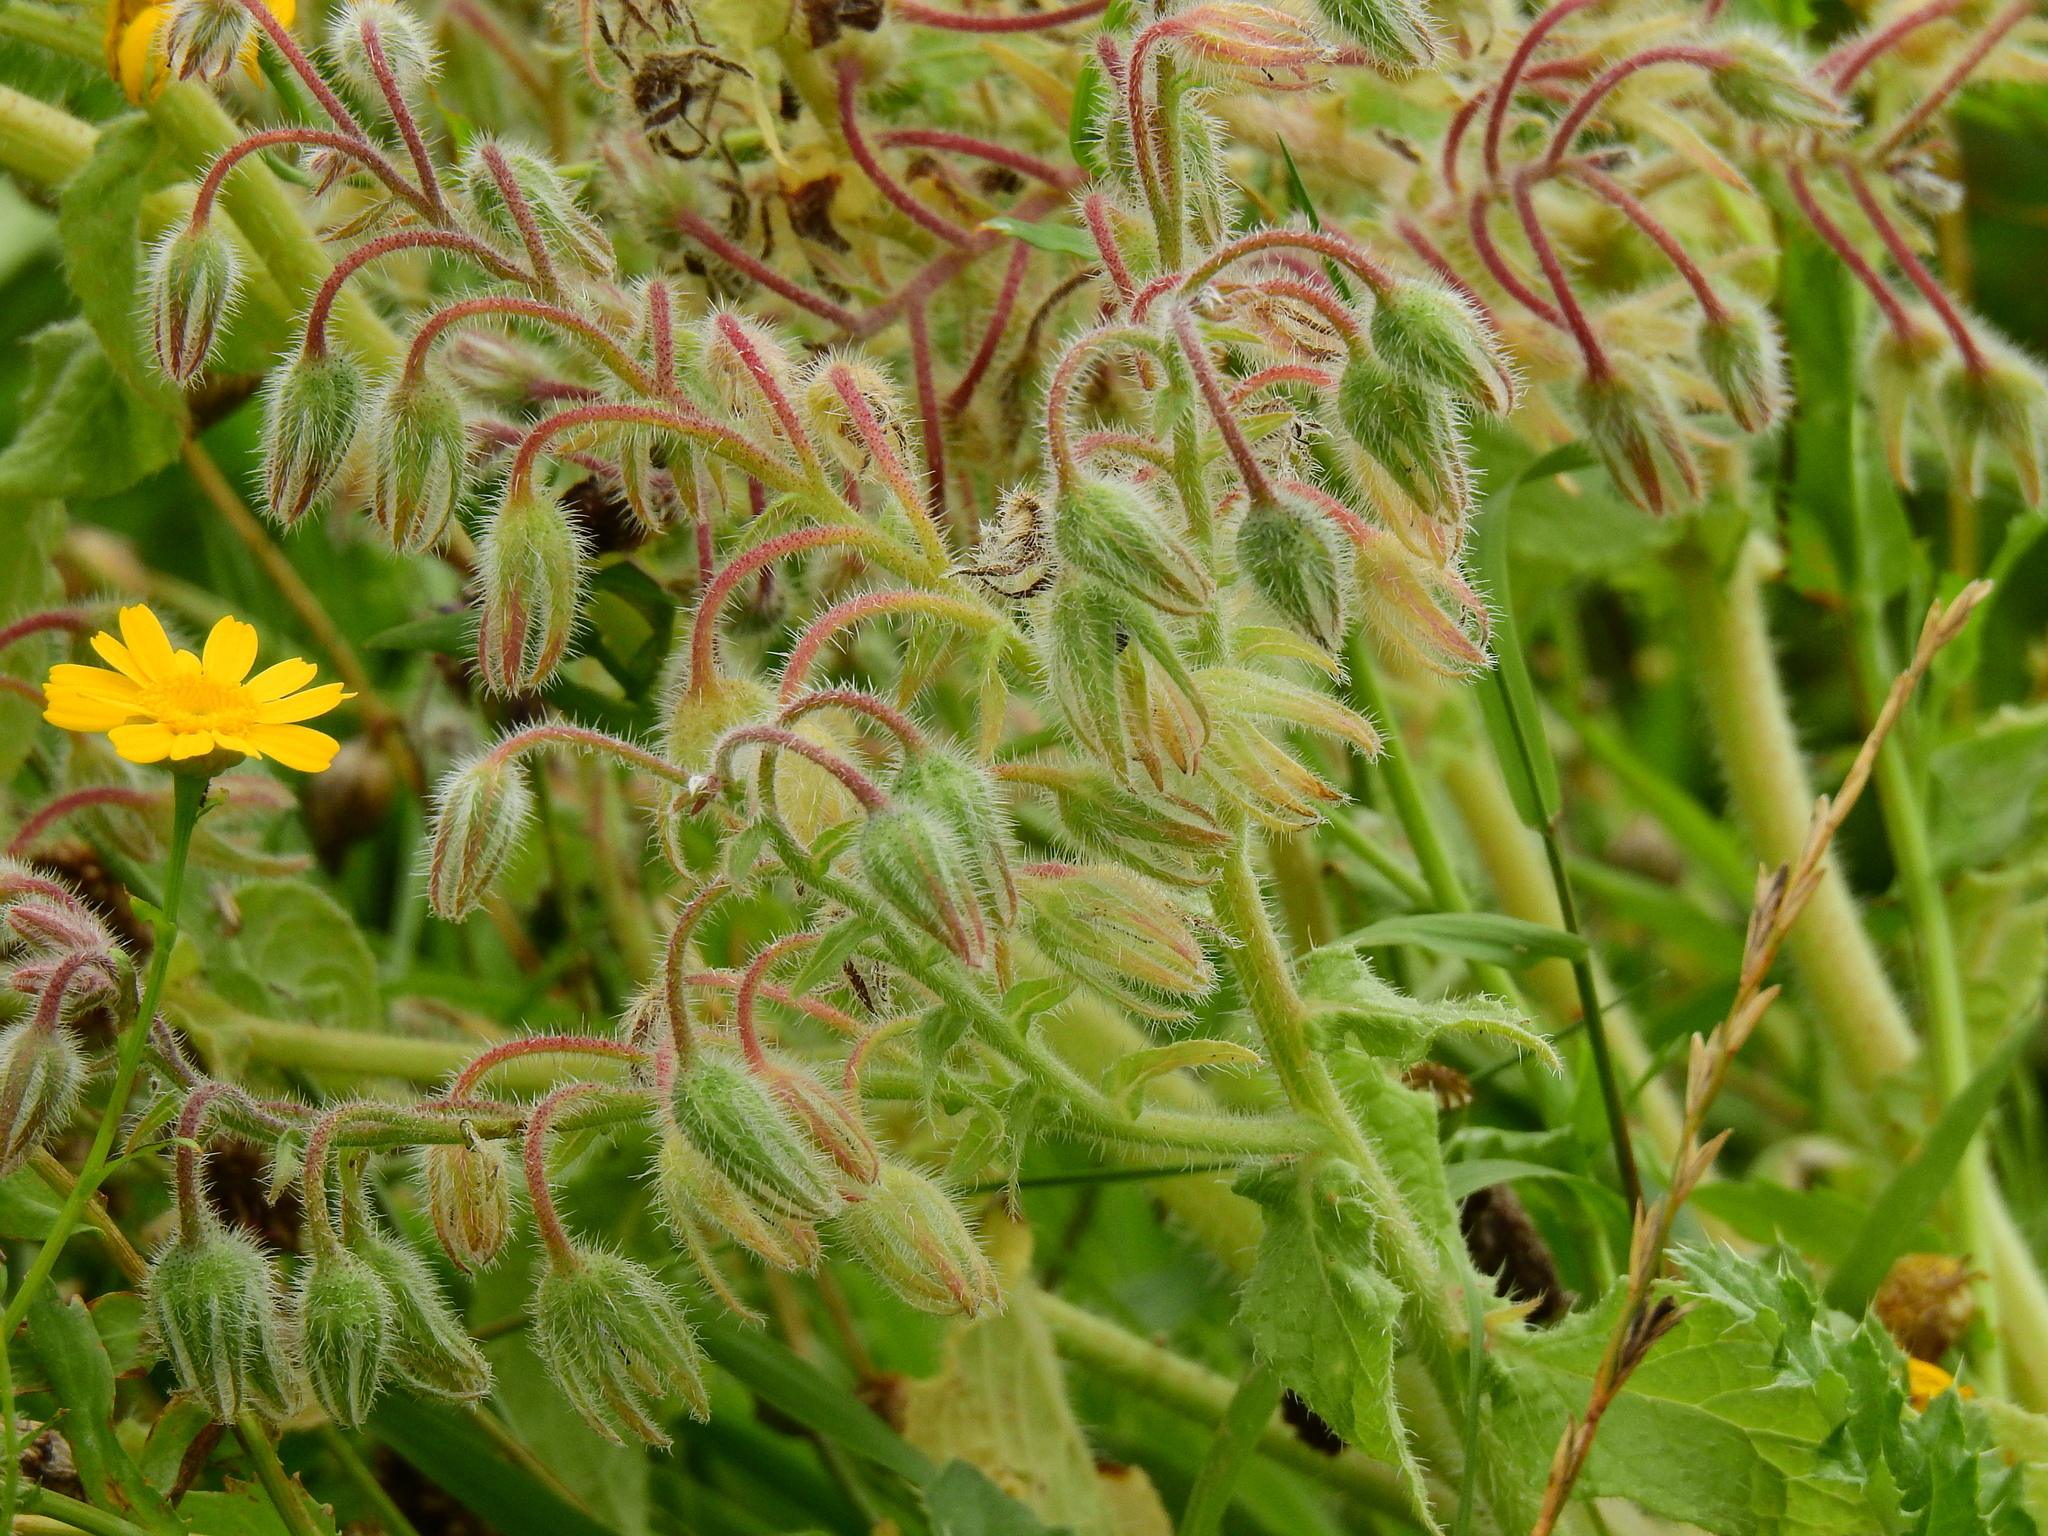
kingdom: Plantae
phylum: Tracheophyta
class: Magnoliopsida
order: Boraginales
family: Boraginaceae
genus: Borago
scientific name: Borago officinalis
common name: Borage
